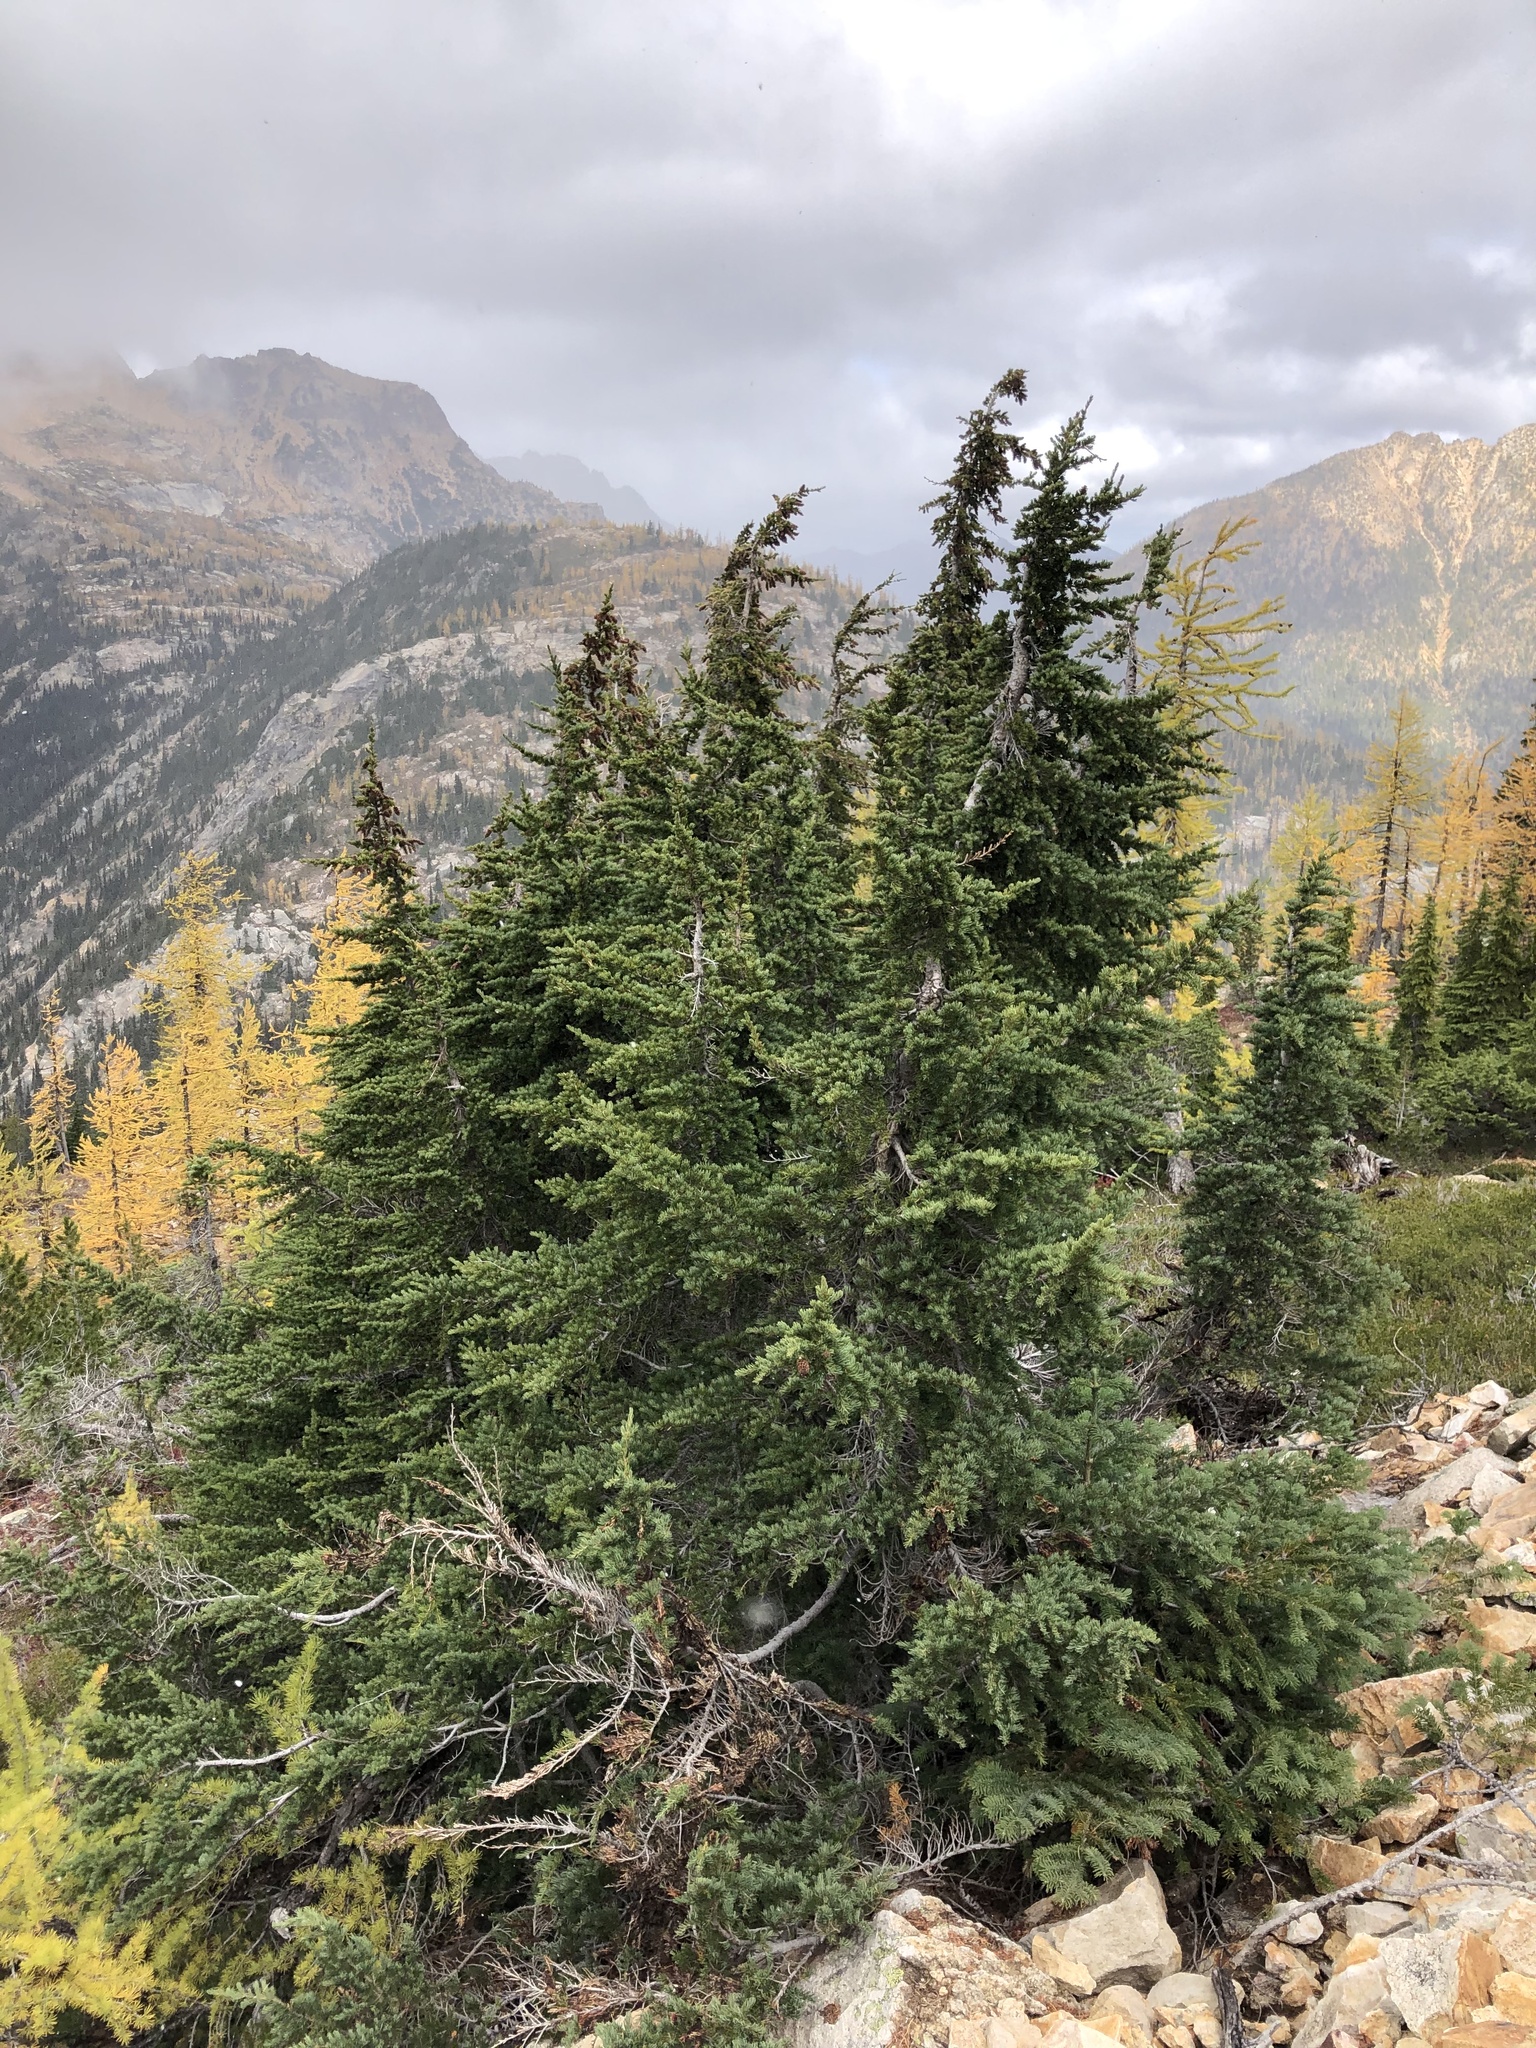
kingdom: Plantae
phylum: Tracheophyta
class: Pinopsida
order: Pinales
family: Pinaceae
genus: Tsuga
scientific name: Tsuga mertensiana
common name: Mountain hemlock
